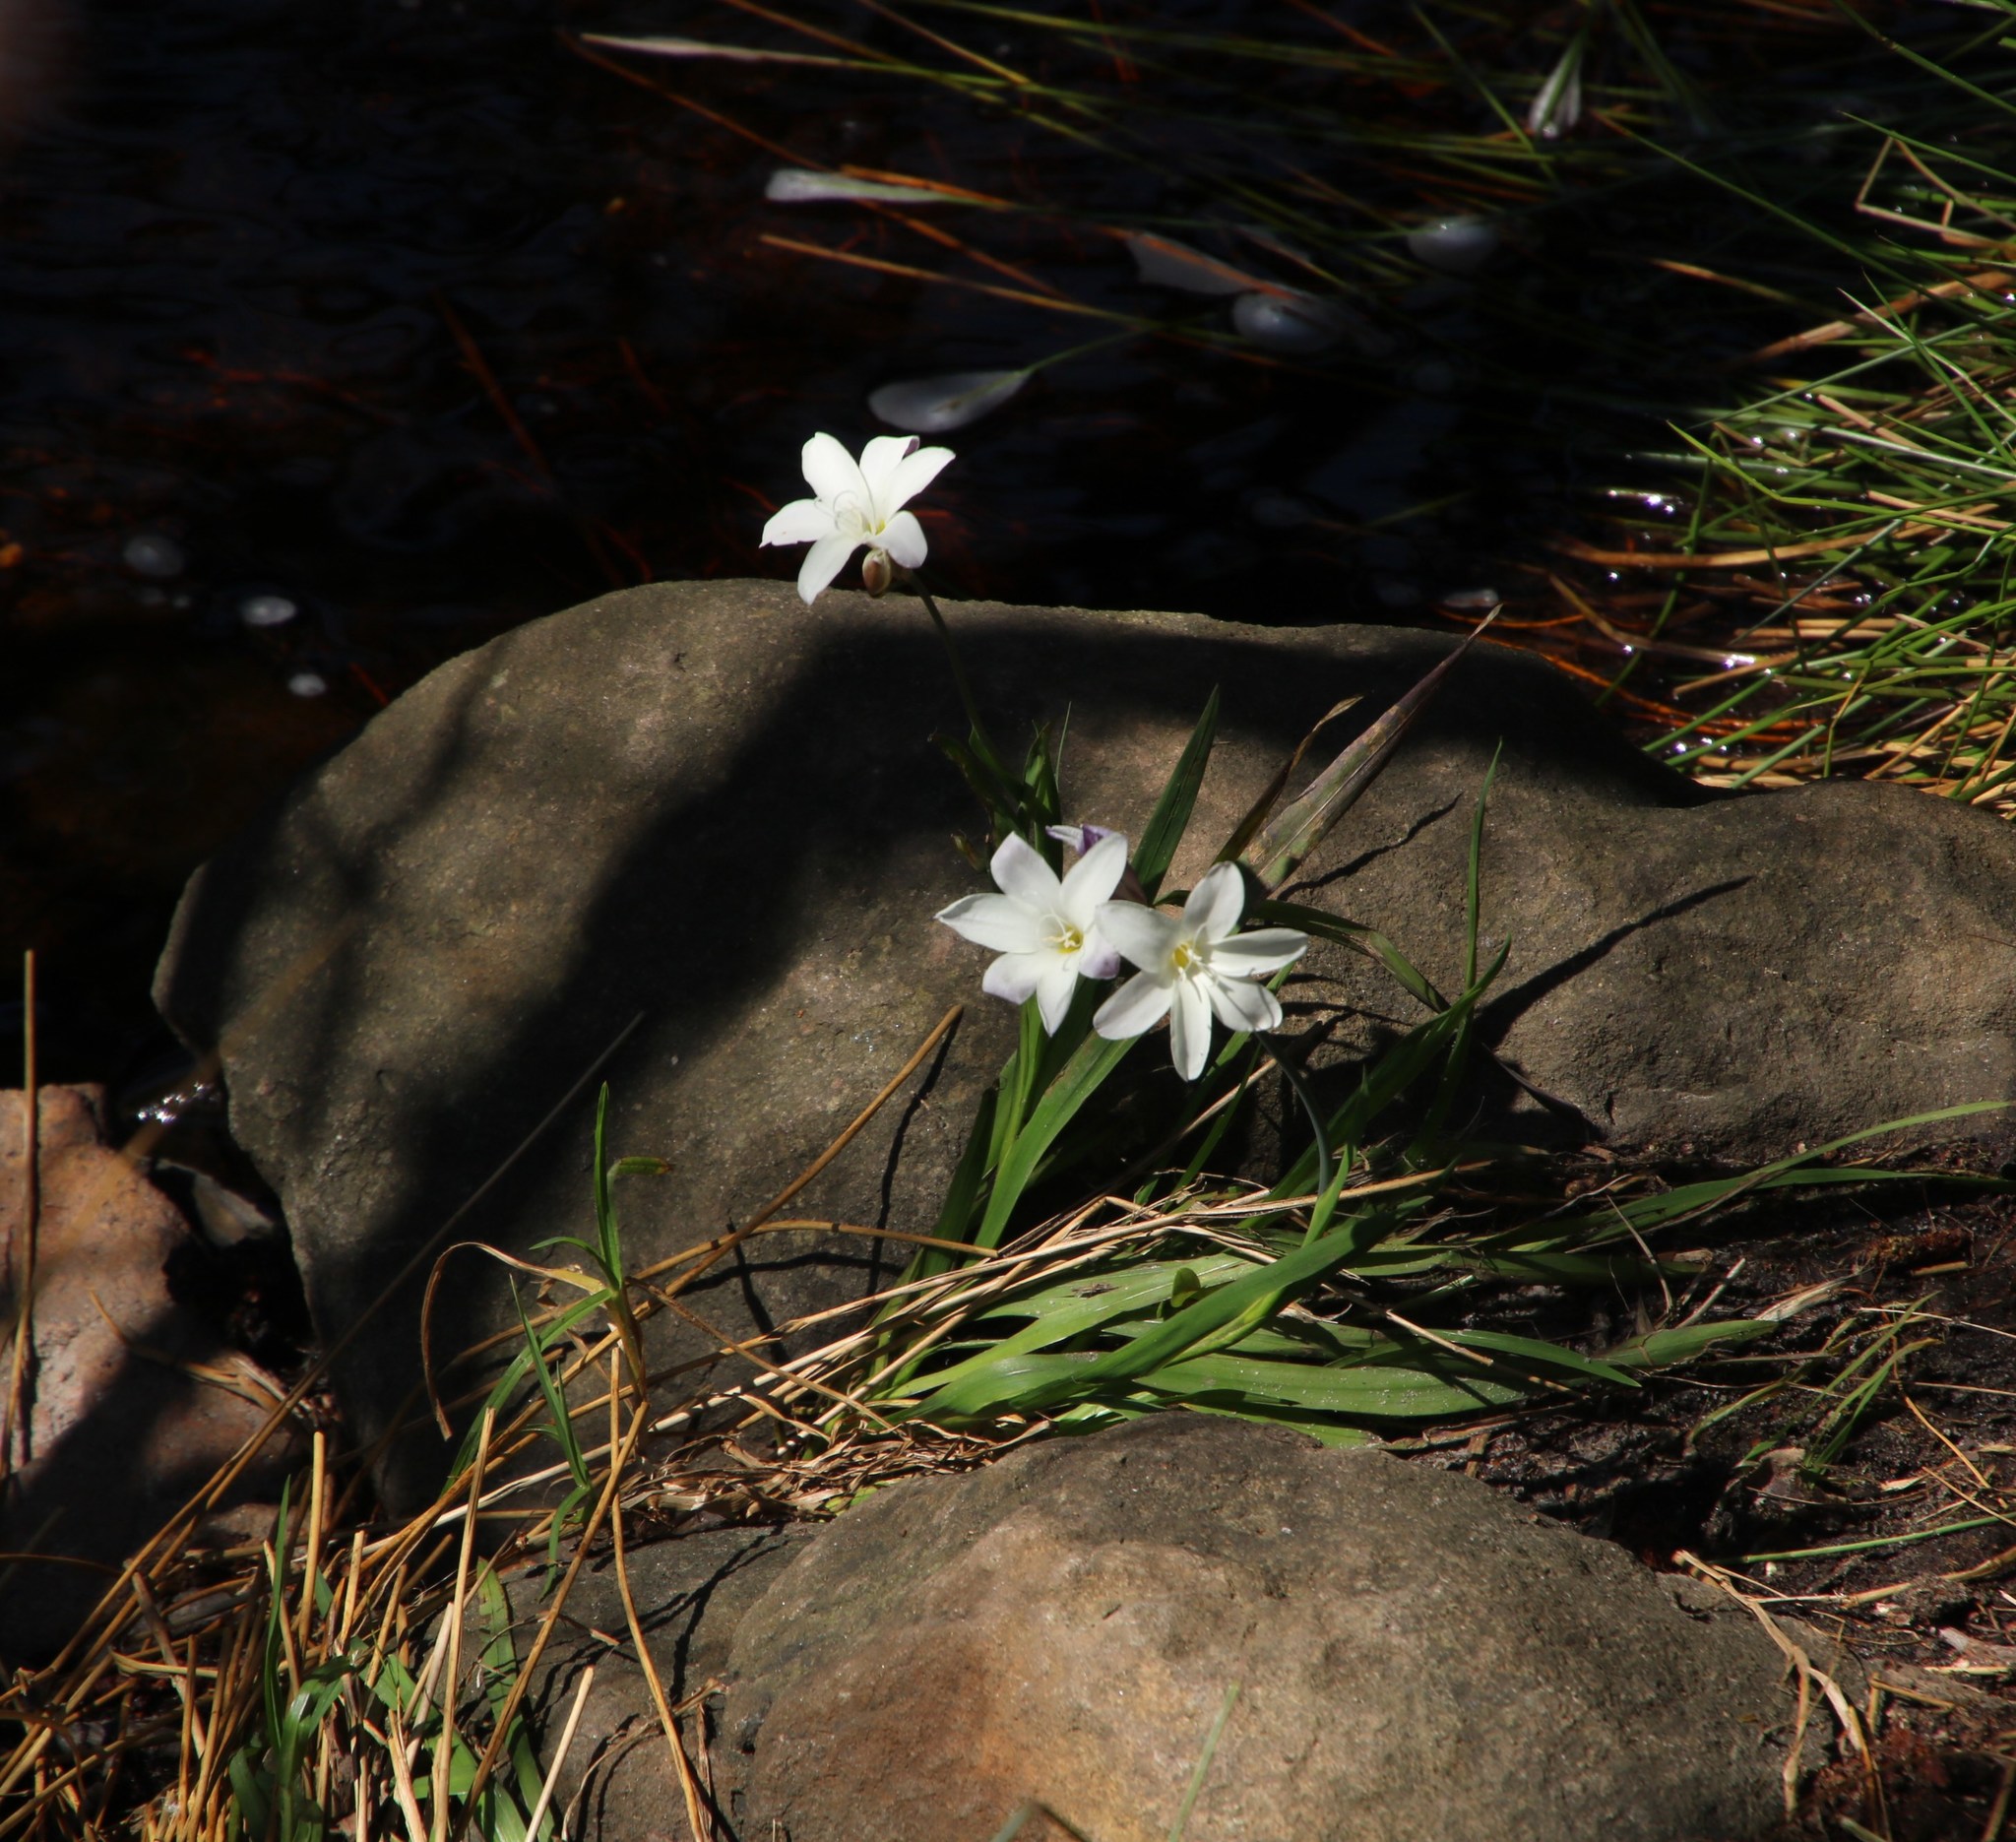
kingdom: Plantae
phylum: Tracheophyta
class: Liliopsida
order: Asparagales
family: Iridaceae
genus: Sparaxis
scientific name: Sparaxis bulbifera
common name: Harlequin-flower
